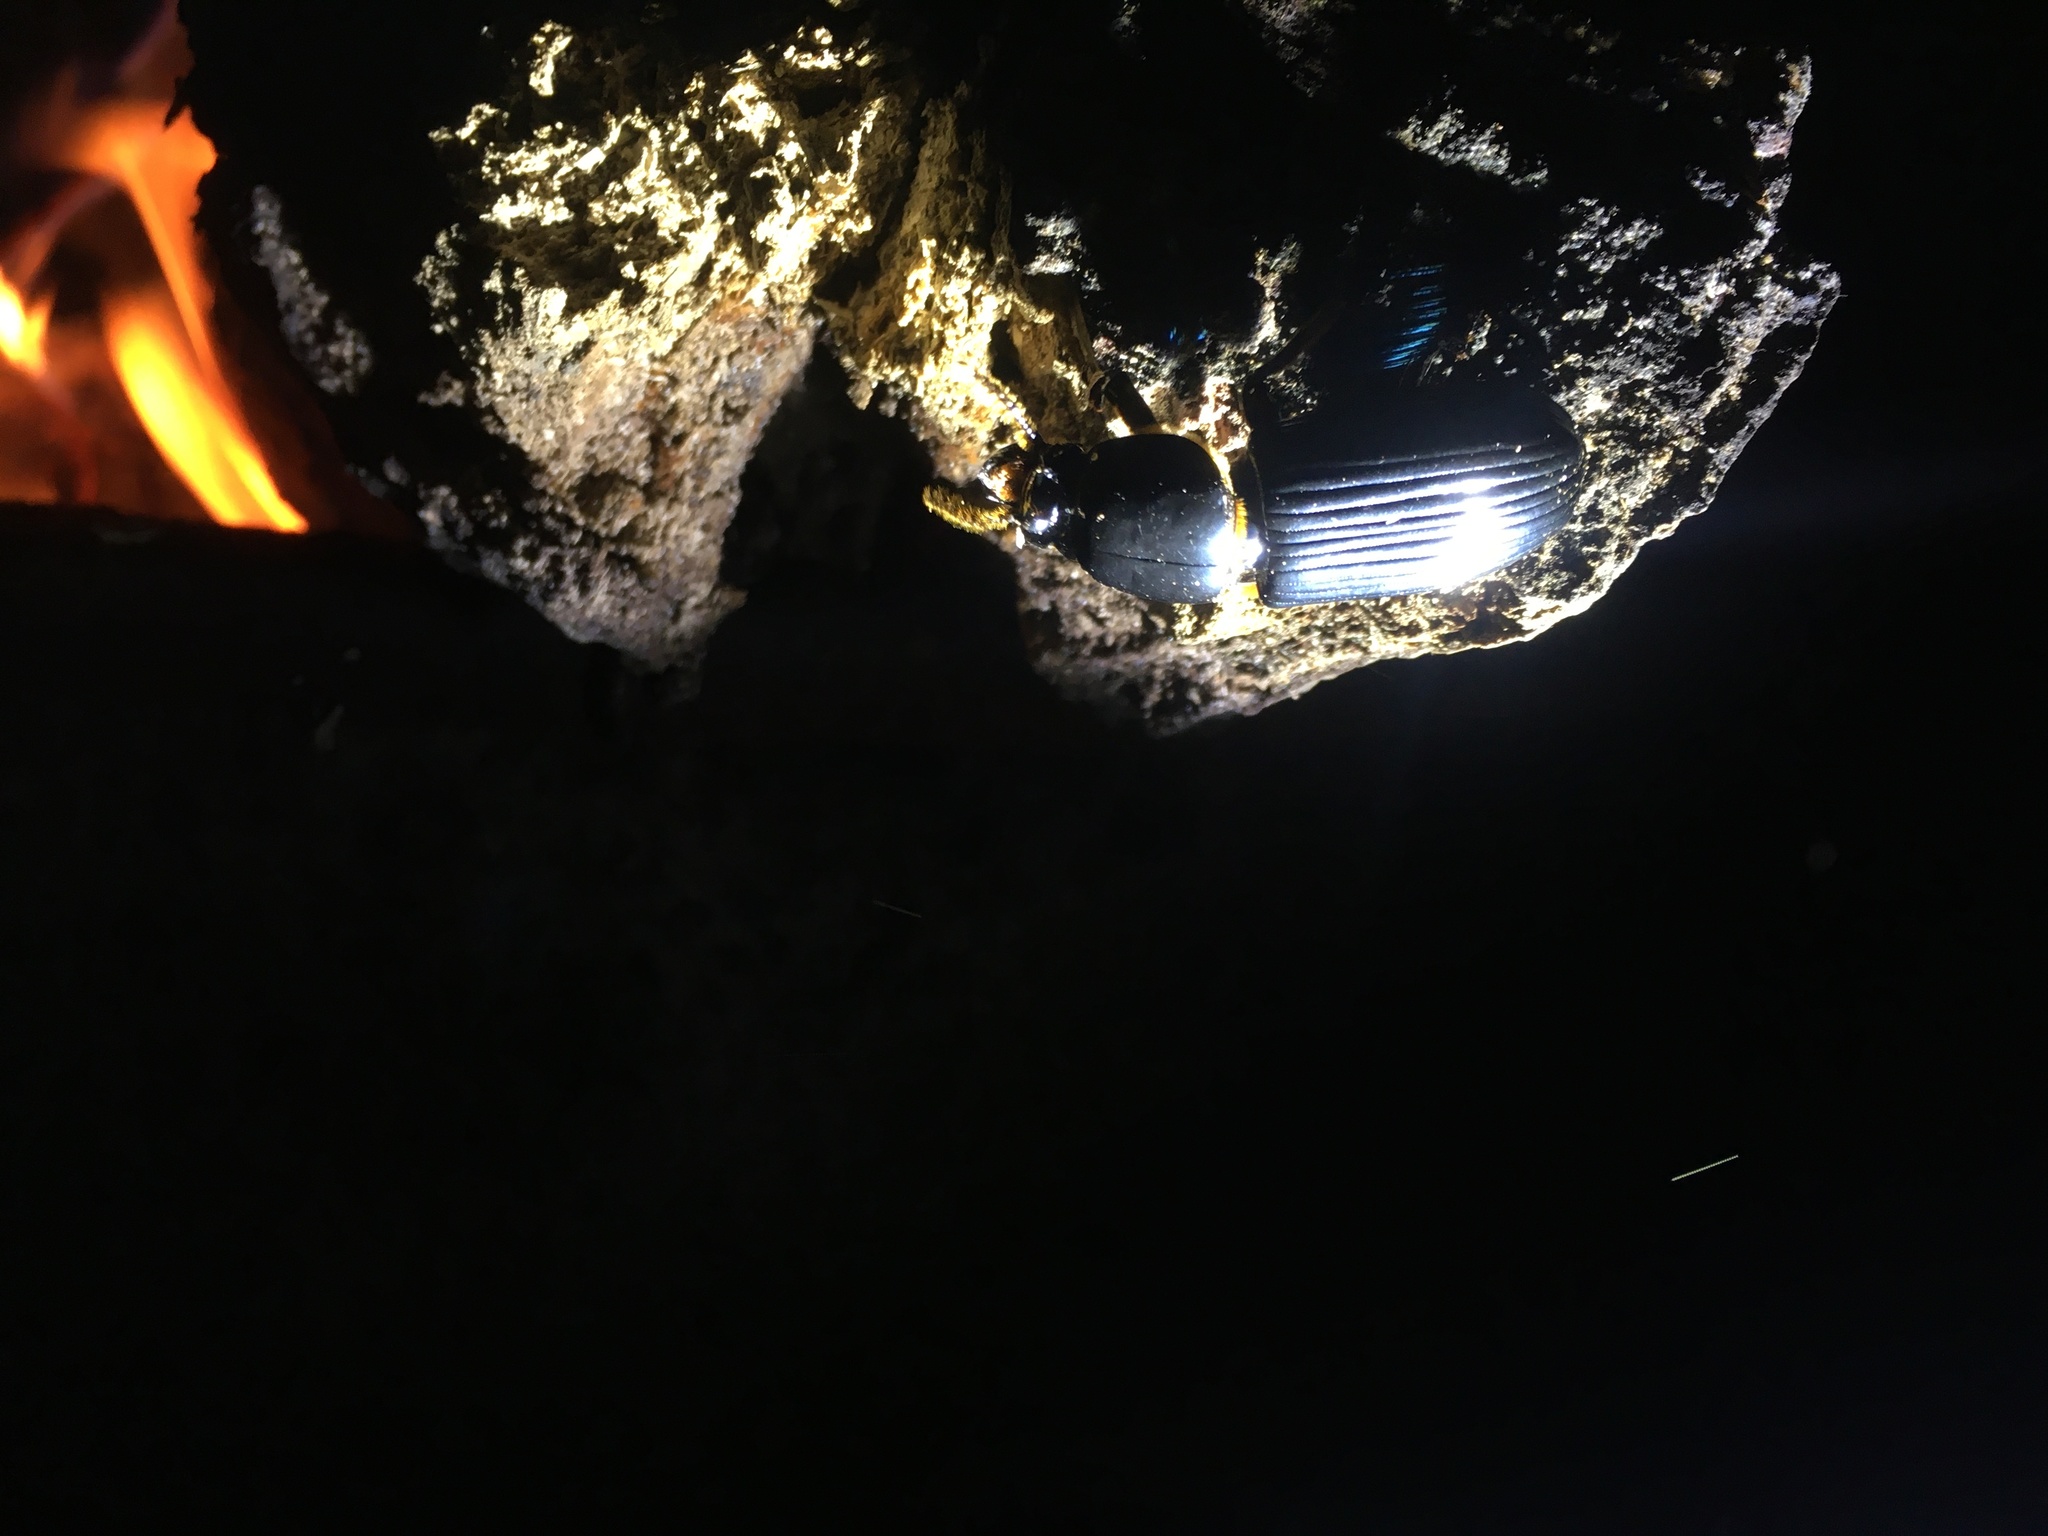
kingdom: Animalia
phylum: Arthropoda
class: Insecta
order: Coleoptera
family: Passalidae
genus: Odontotaenius
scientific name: Odontotaenius disjunctus
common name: Patent leather beetle
